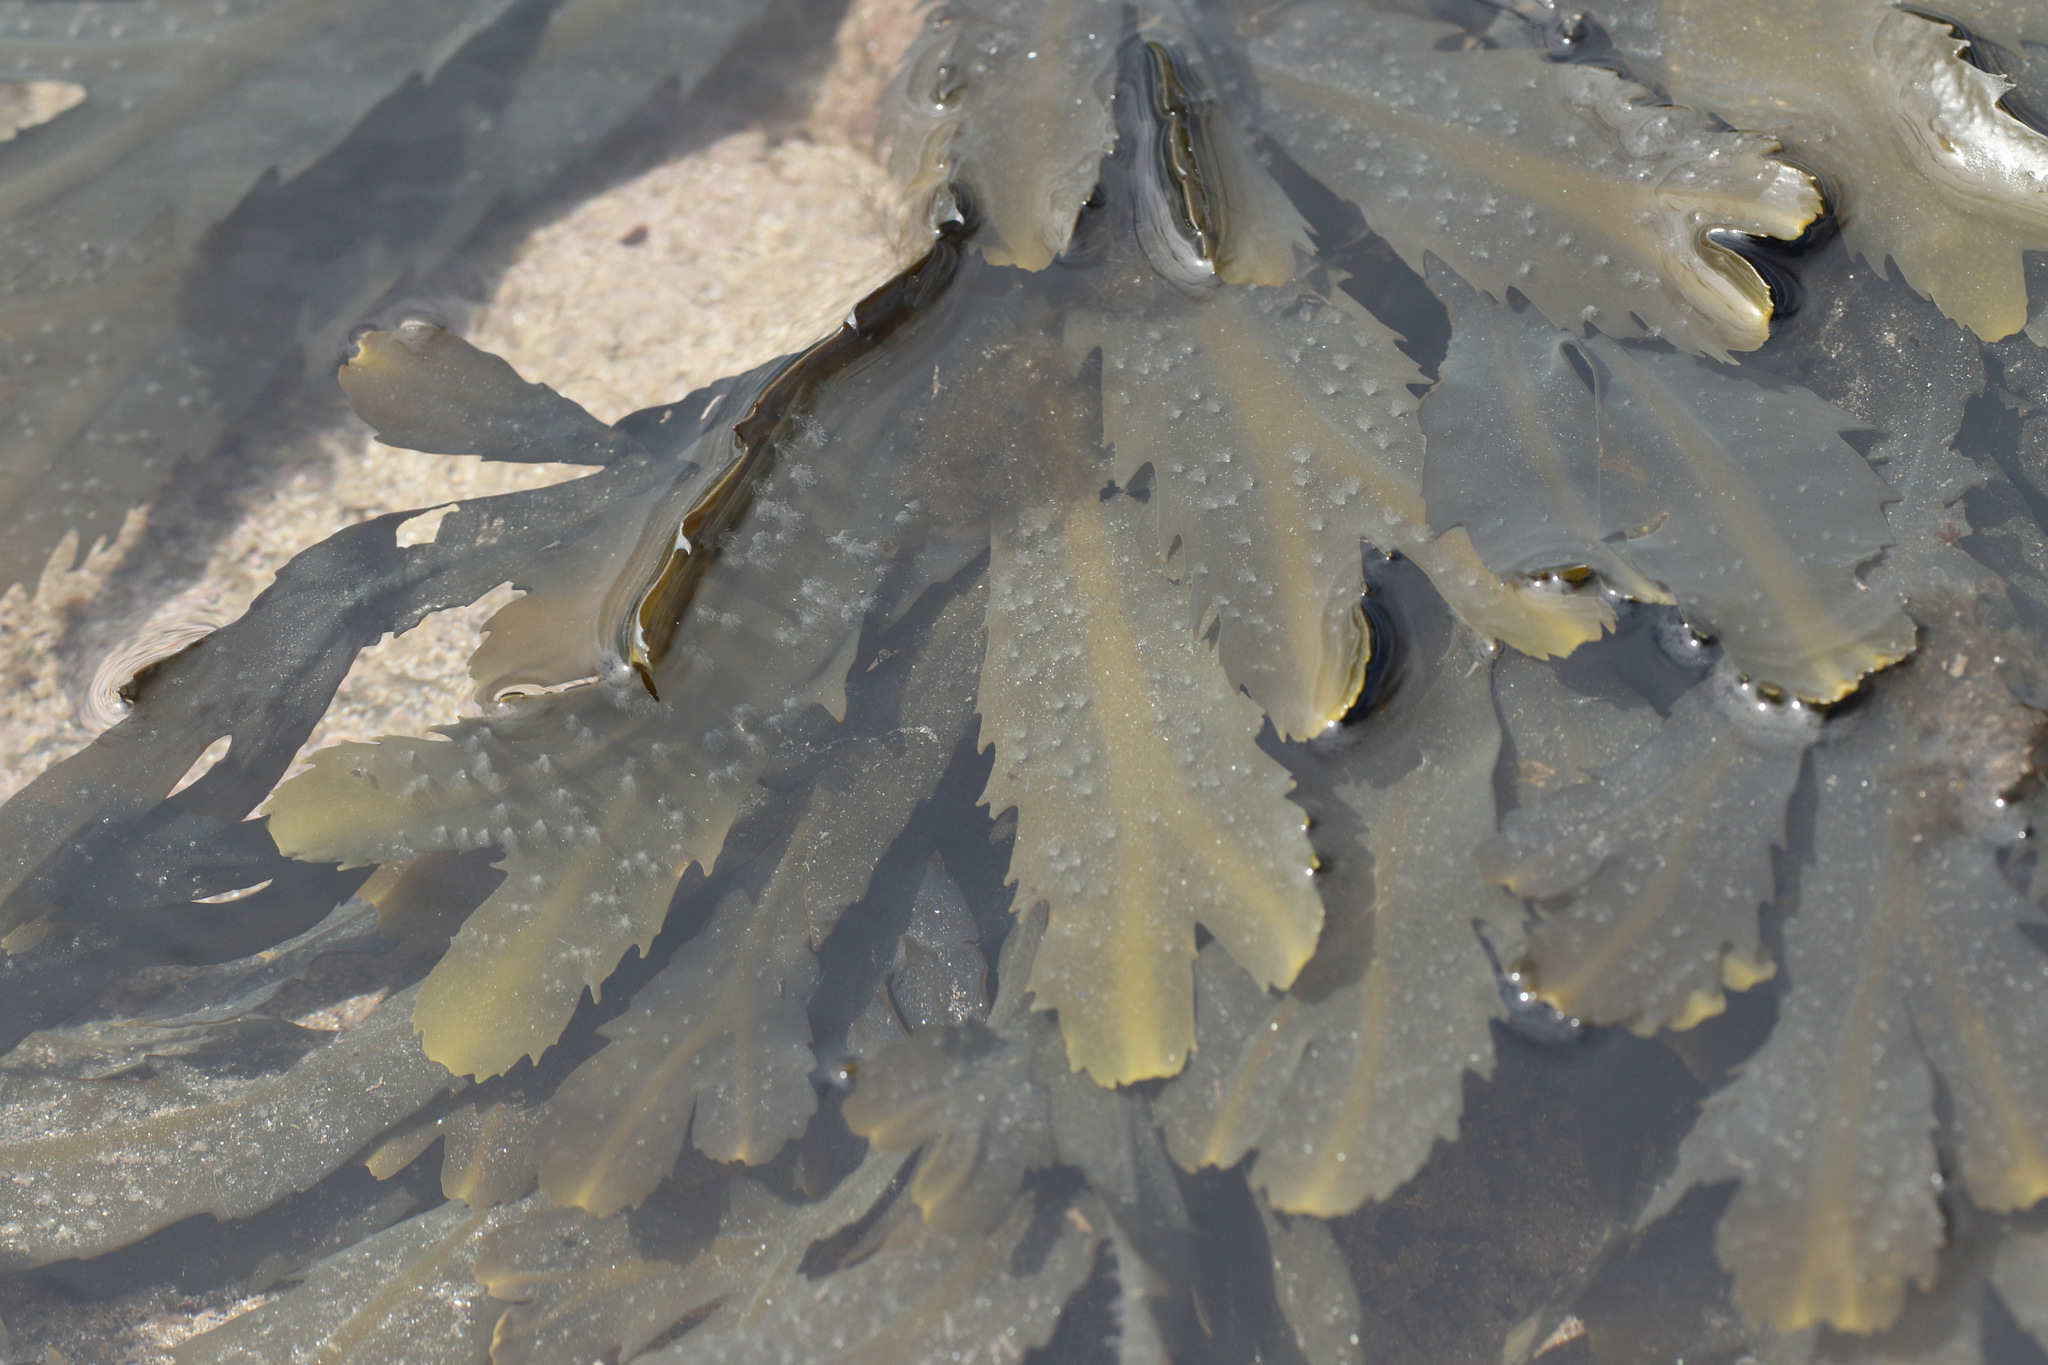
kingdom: Chromista
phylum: Ochrophyta
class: Phaeophyceae
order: Fucales
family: Fucaceae
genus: Fucus
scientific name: Fucus serratus
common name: Toothed wrack
